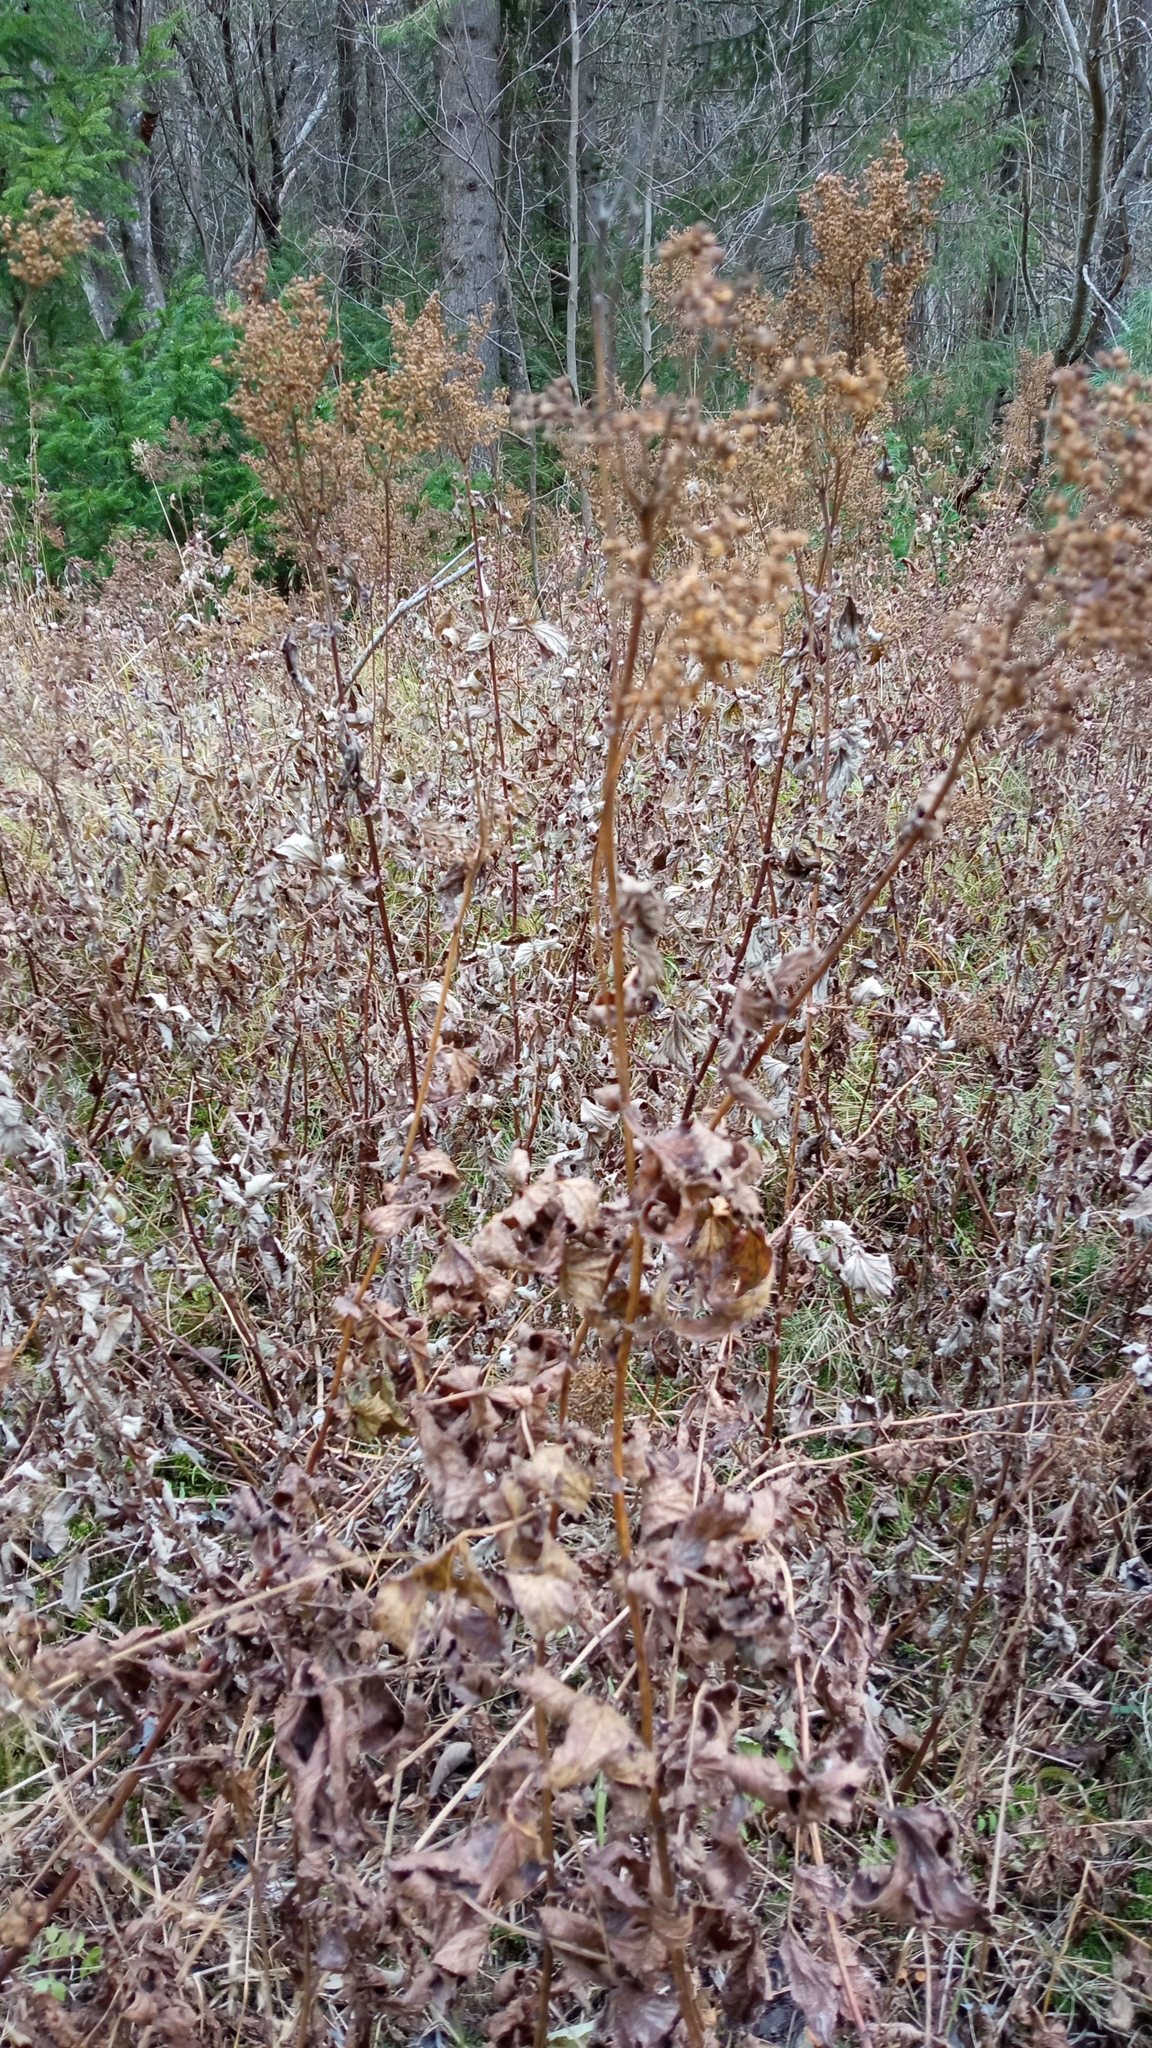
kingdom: Plantae
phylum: Tracheophyta
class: Magnoliopsida
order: Rosales
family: Rosaceae
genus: Filipendula
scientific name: Filipendula ulmaria
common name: Meadowsweet
